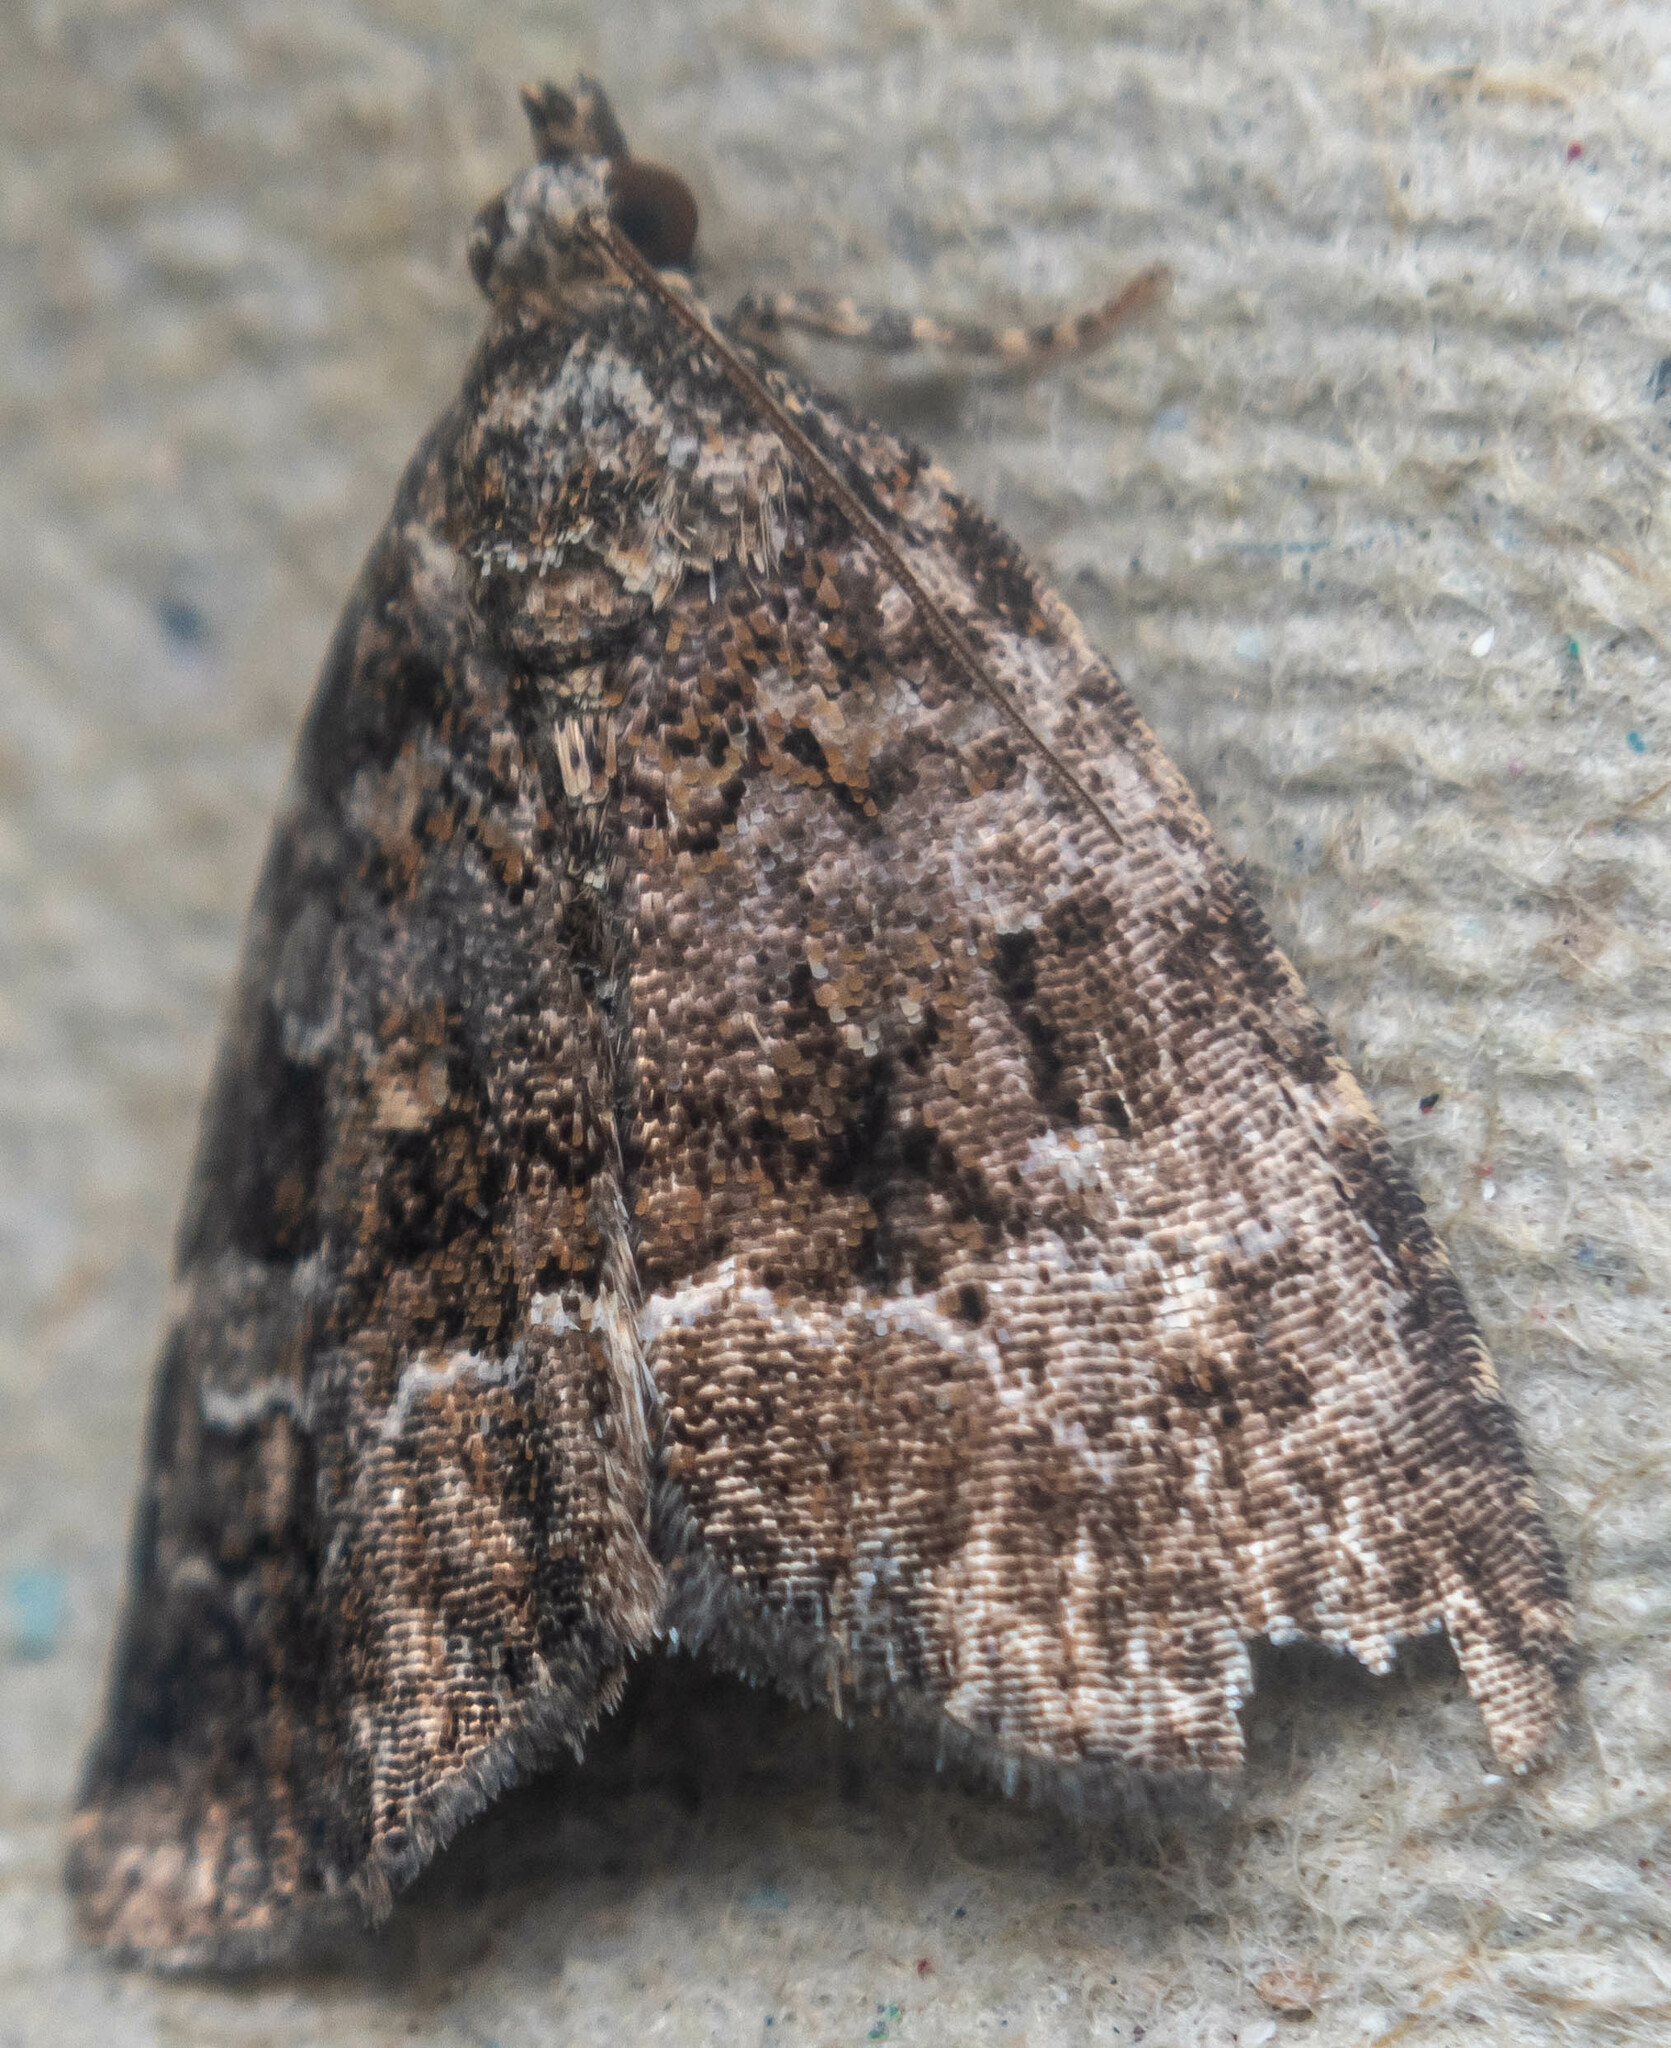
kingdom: Animalia
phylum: Arthropoda
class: Insecta
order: Lepidoptera
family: Noctuidae
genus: Deltote
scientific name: Deltote pygarga
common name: Marbled white spot
